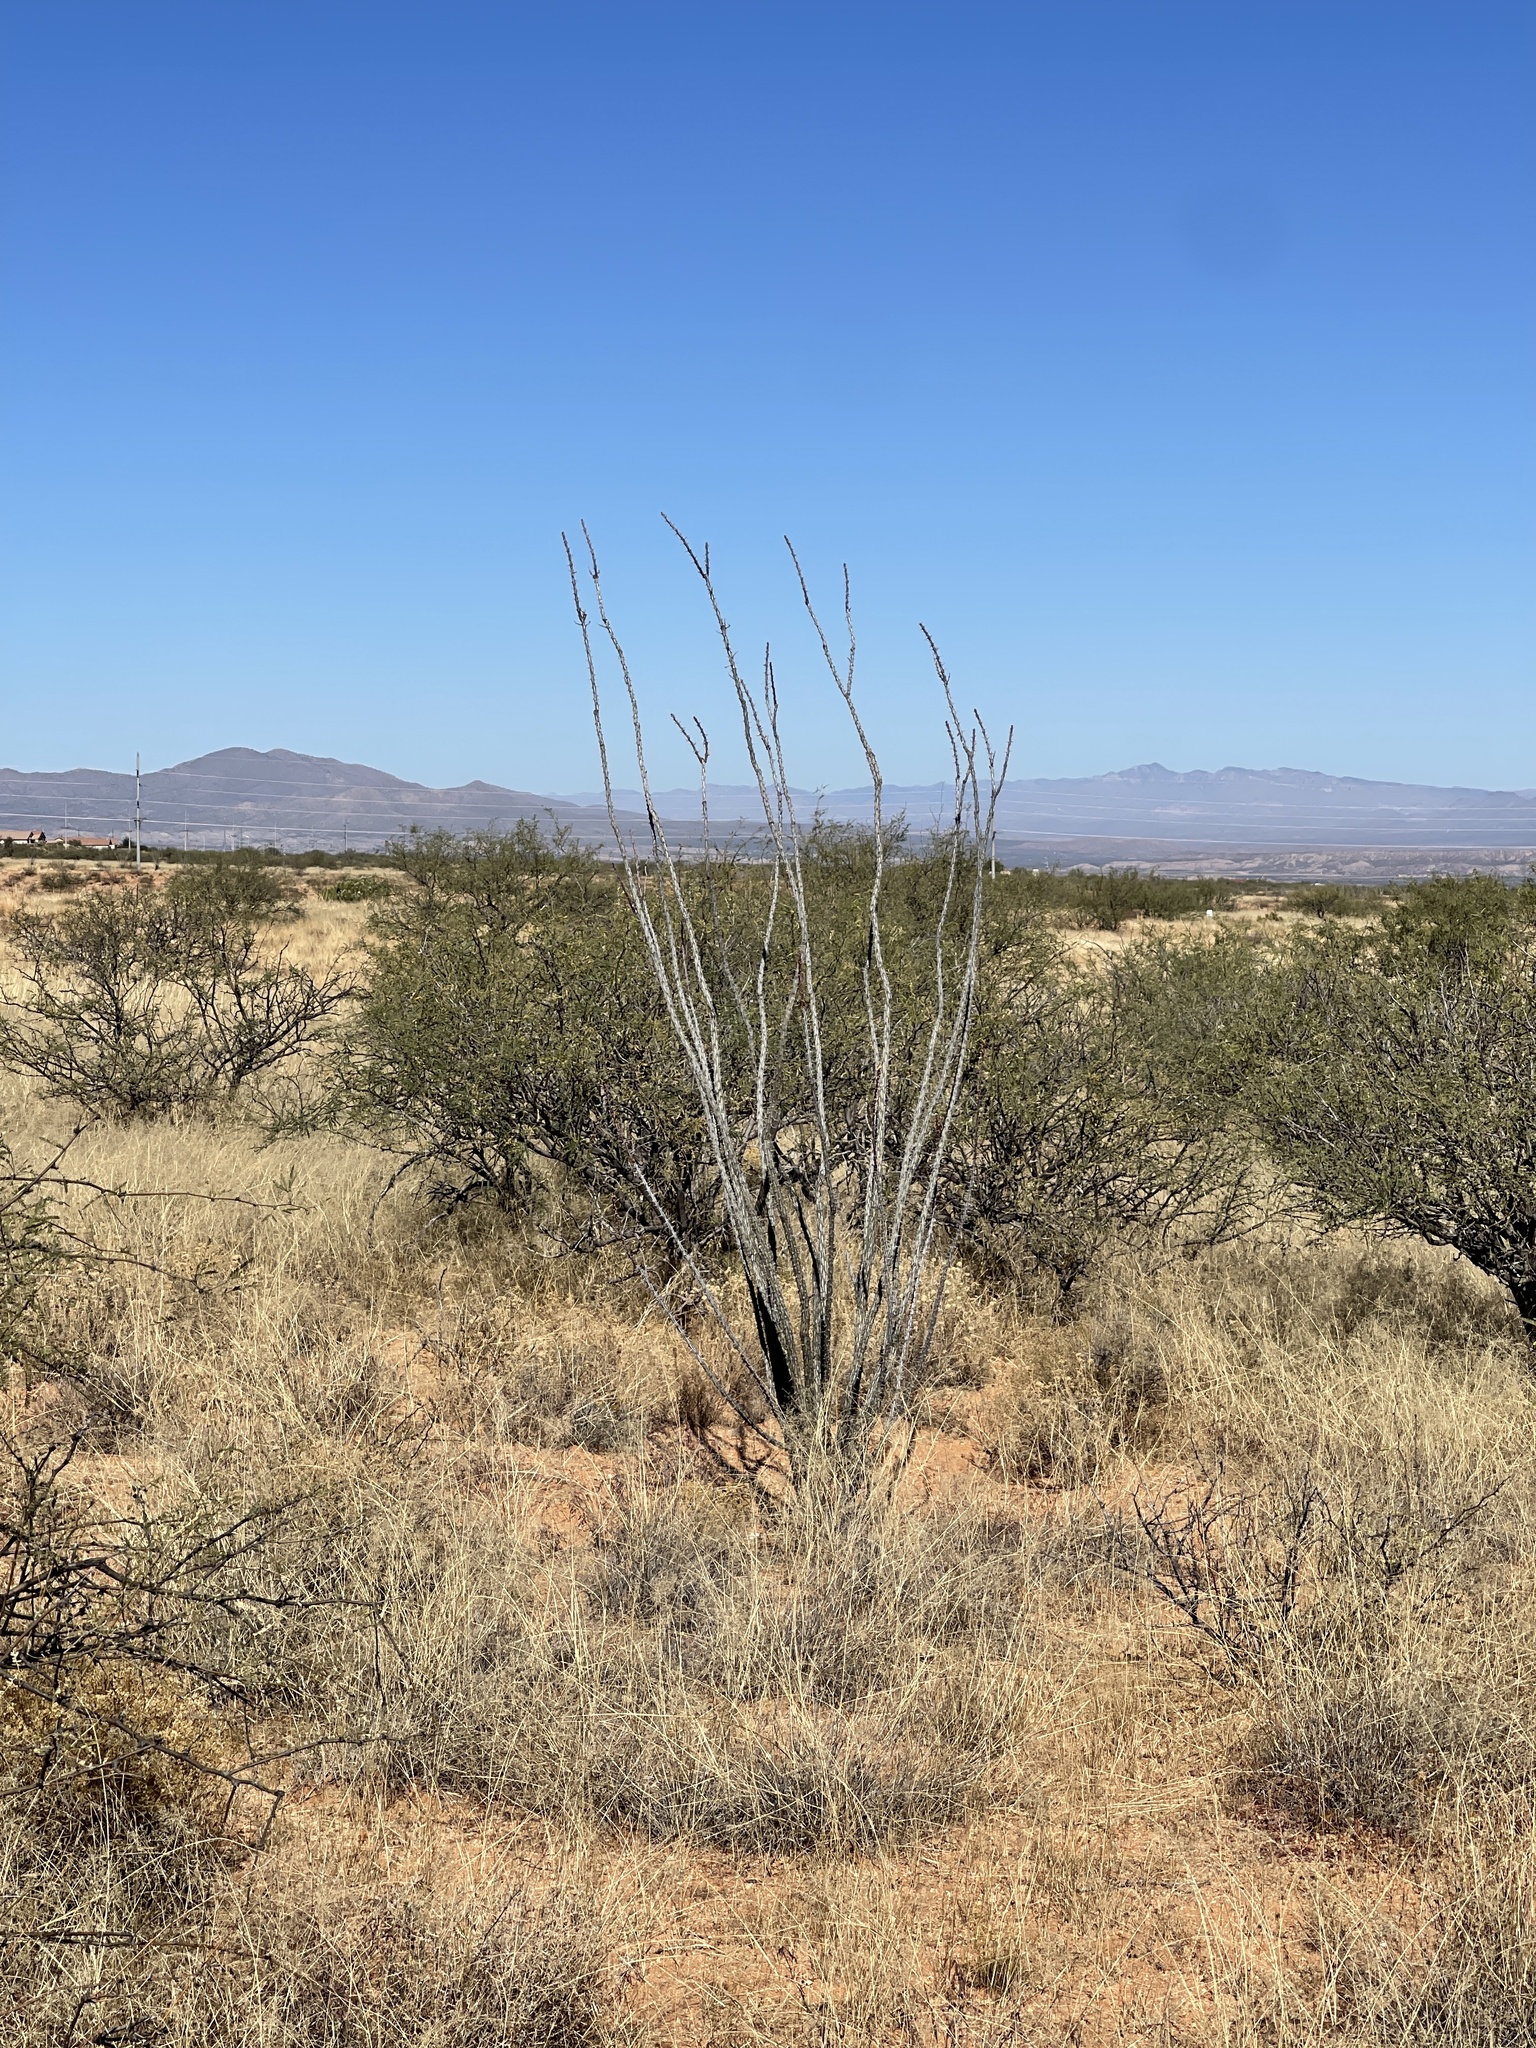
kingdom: Plantae
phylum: Tracheophyta
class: Magnoliopsida
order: Ericales
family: Fouquieriaceae
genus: Fouquieria
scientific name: Fouquieria splendens
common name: Vine-cactus
